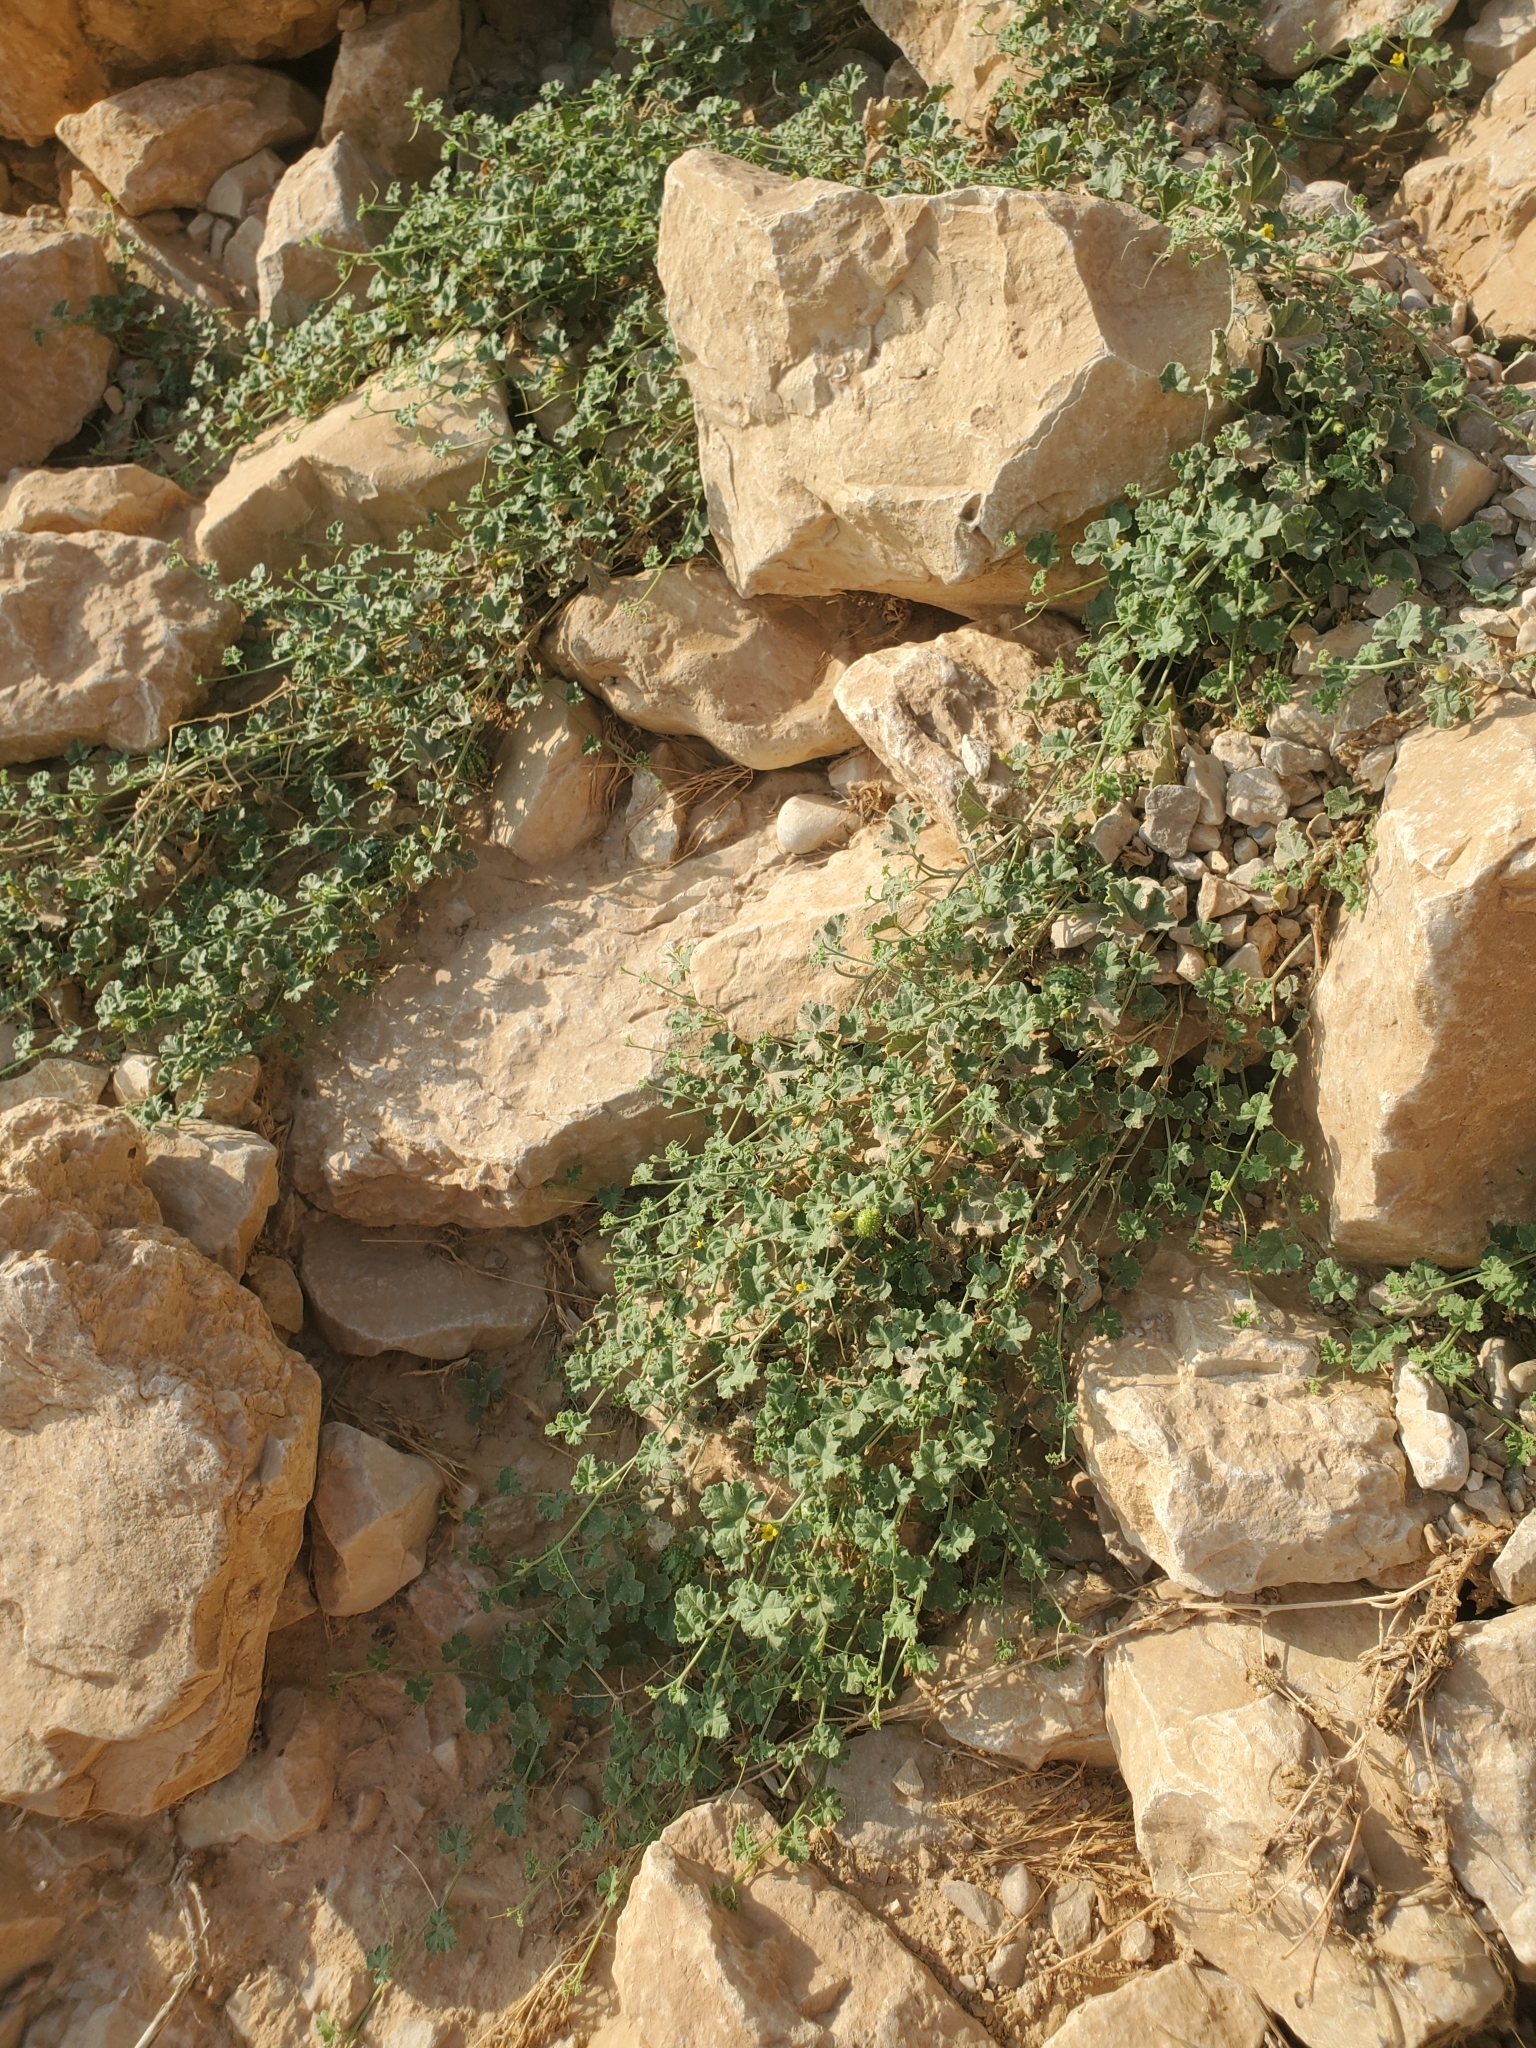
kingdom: Plantae
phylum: Tracheophyta
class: Magnoliopsida
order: Cucurbitales
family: Cucurbitaceae
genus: Cucumis
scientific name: Cucumis prophetarum
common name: Wild cucumber
